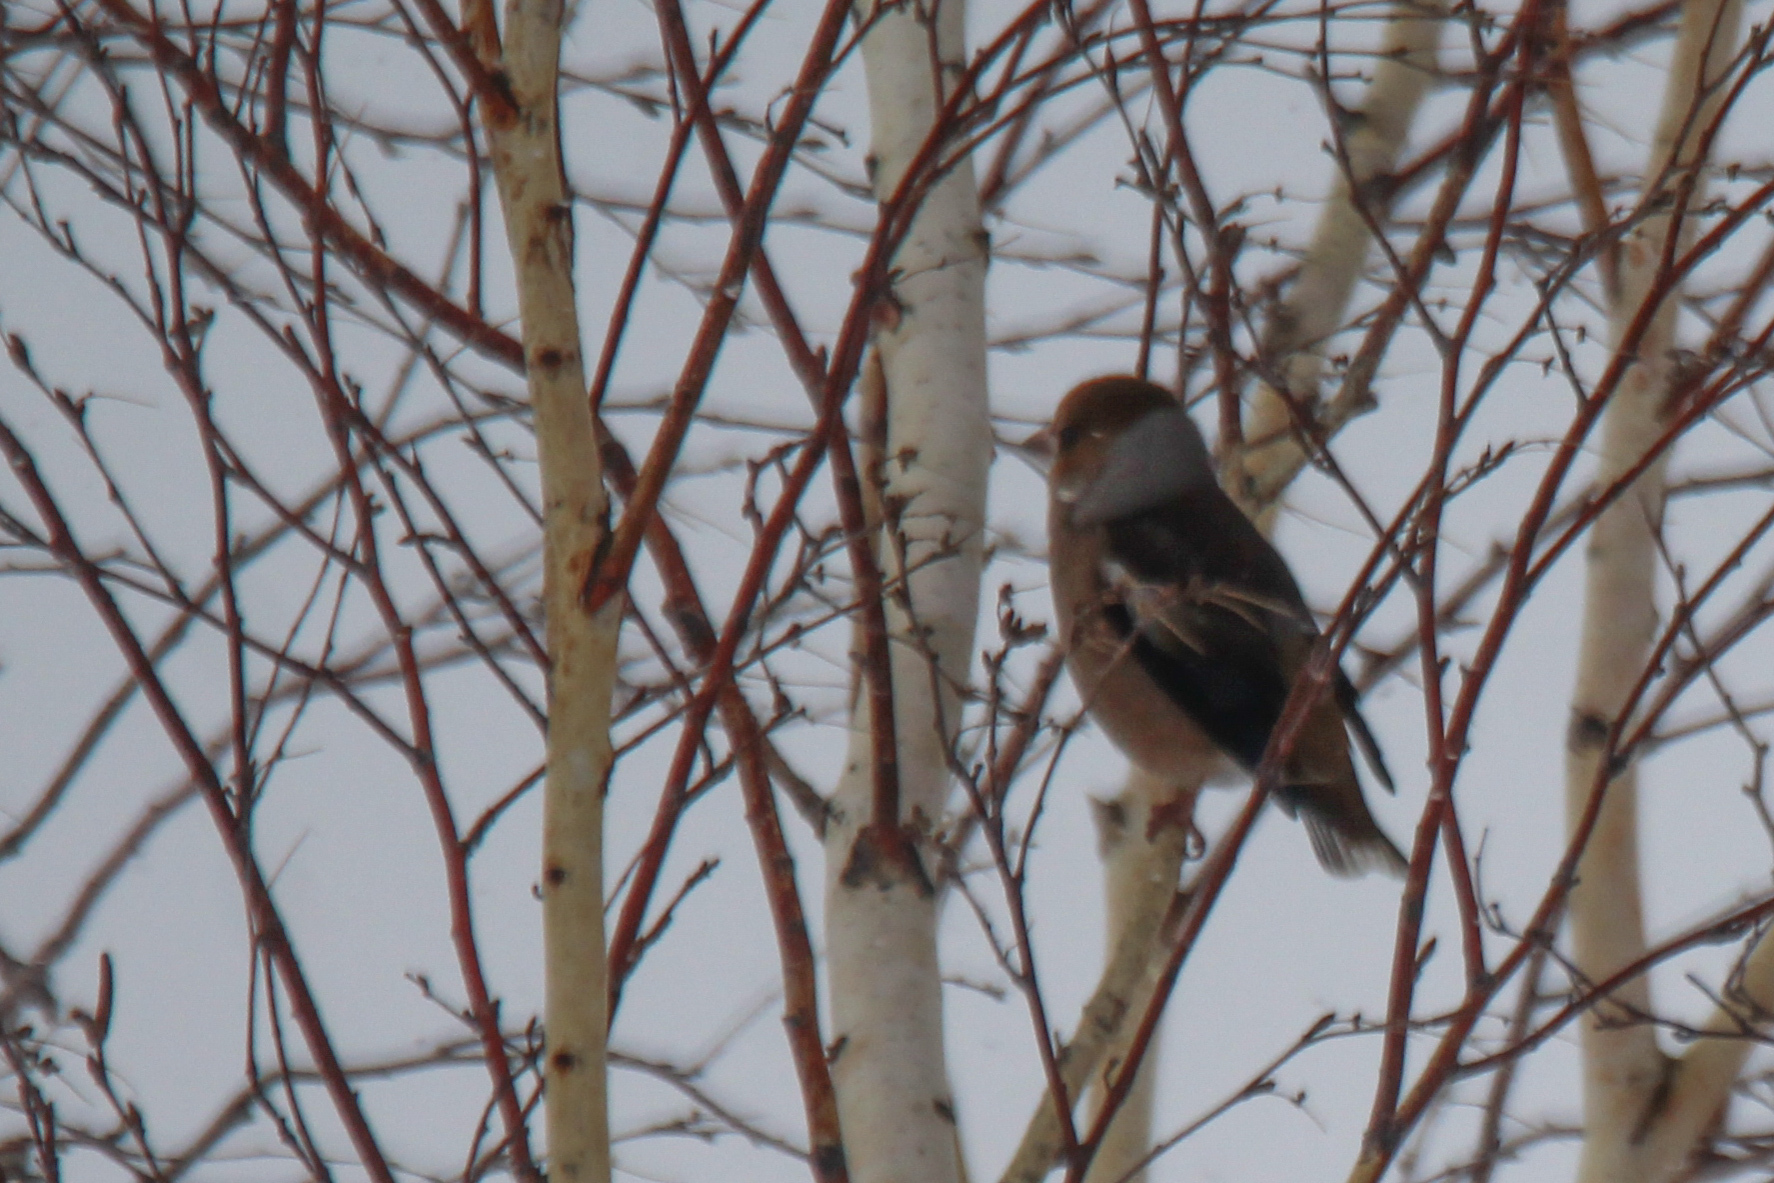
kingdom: Animalia
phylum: Chordata
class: Aves
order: Passeriformes
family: Fringillidae
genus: Coccothraustes
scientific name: Coccothraustes coccothraustes
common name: Hawfinch
